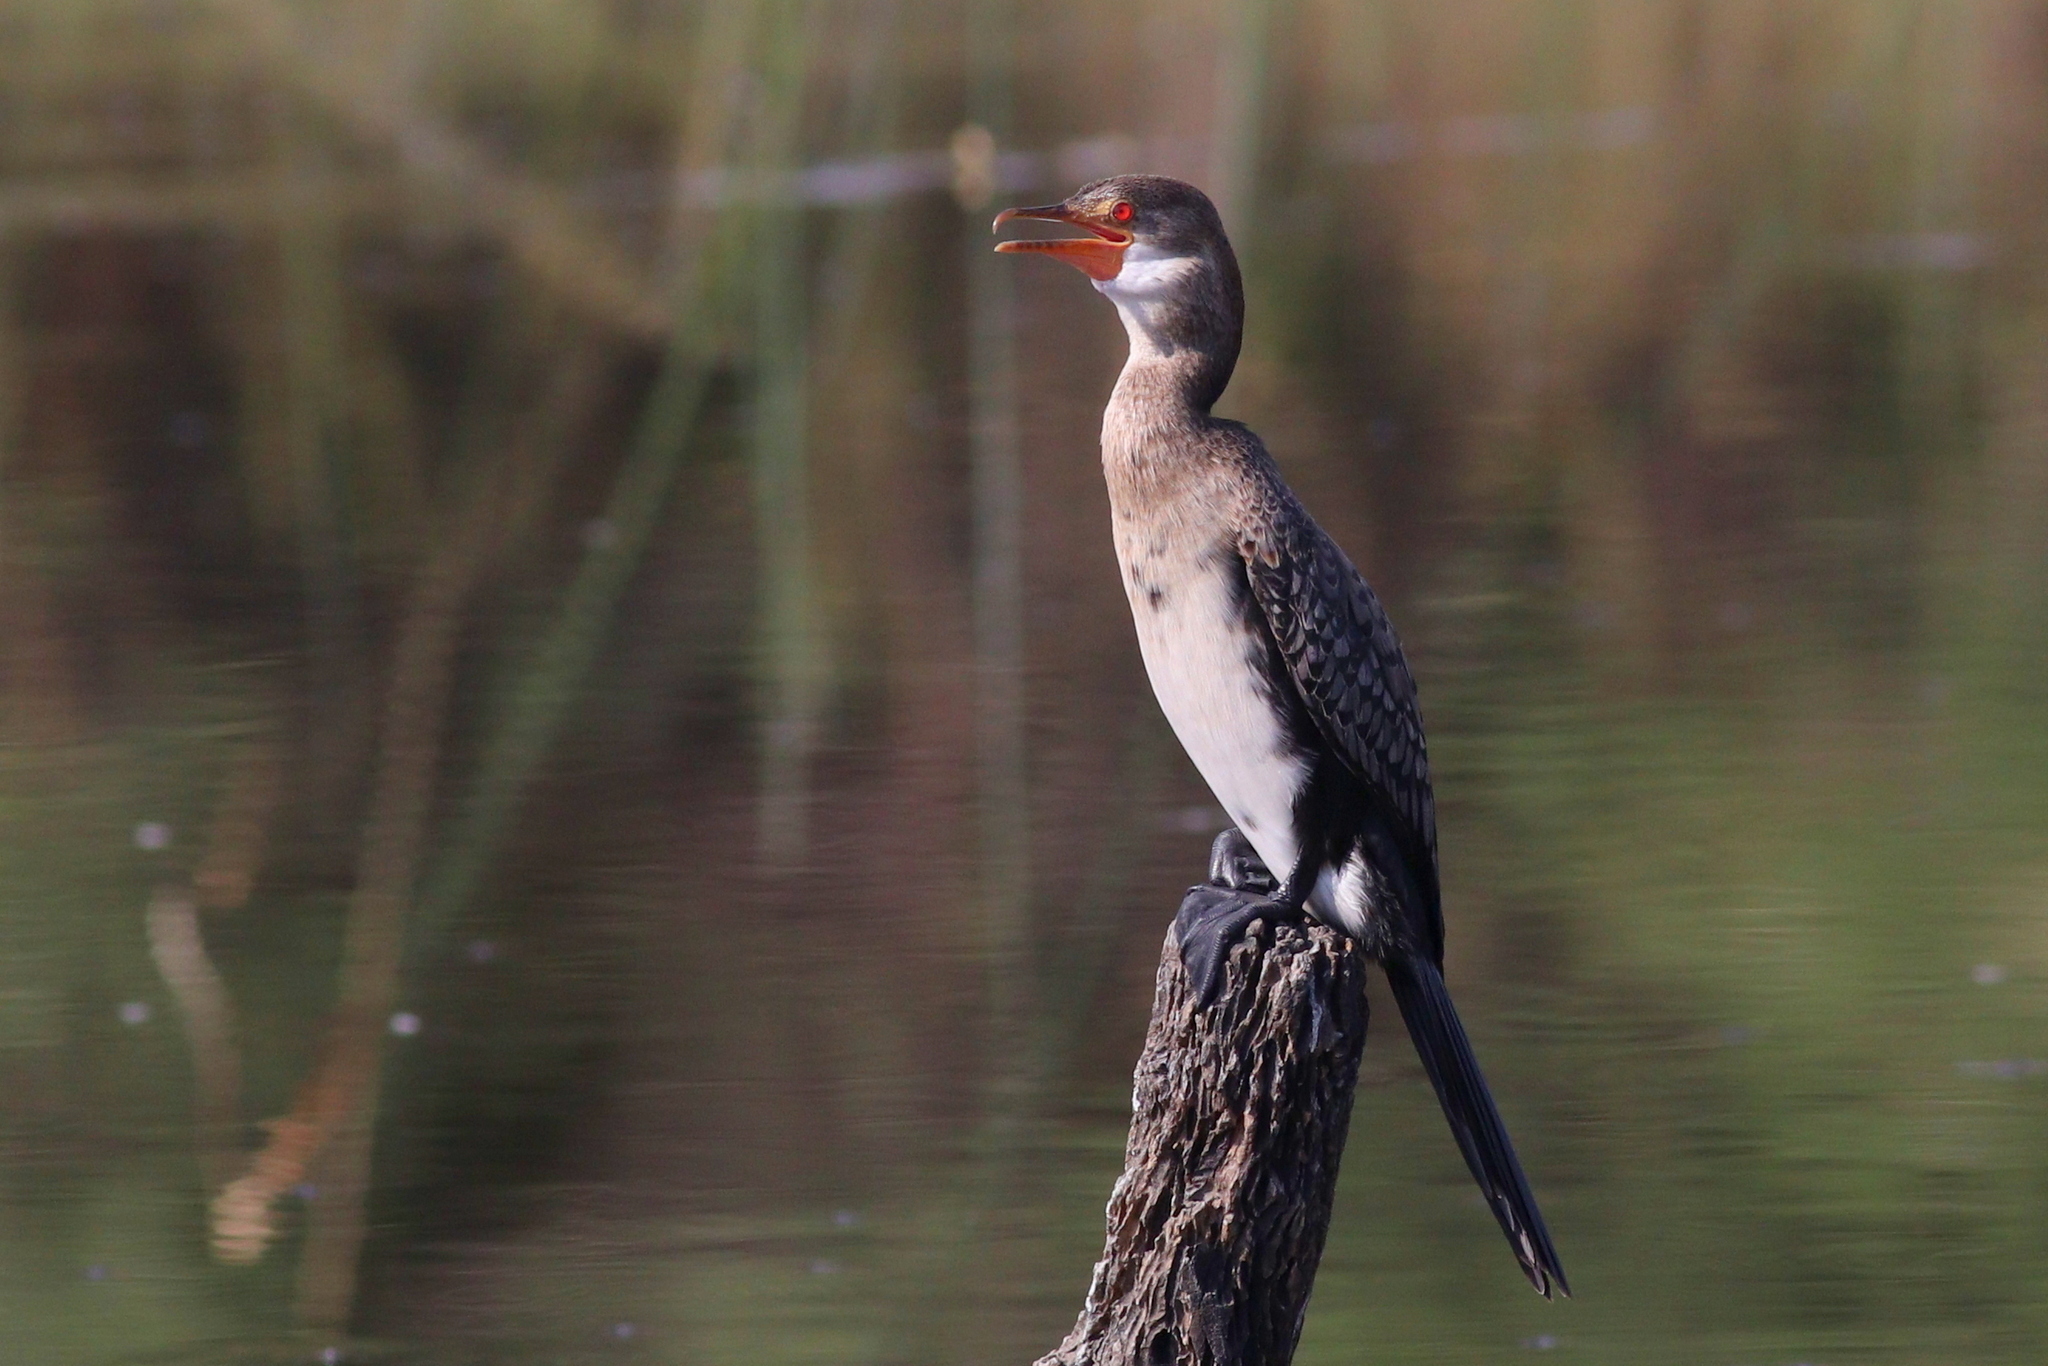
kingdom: Animalia
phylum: Chordata
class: Aves
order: Suliformes
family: Phalacrocoracidae
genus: Microcarbo
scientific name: Microcarbo africanus
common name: Long-tailed cormorant
